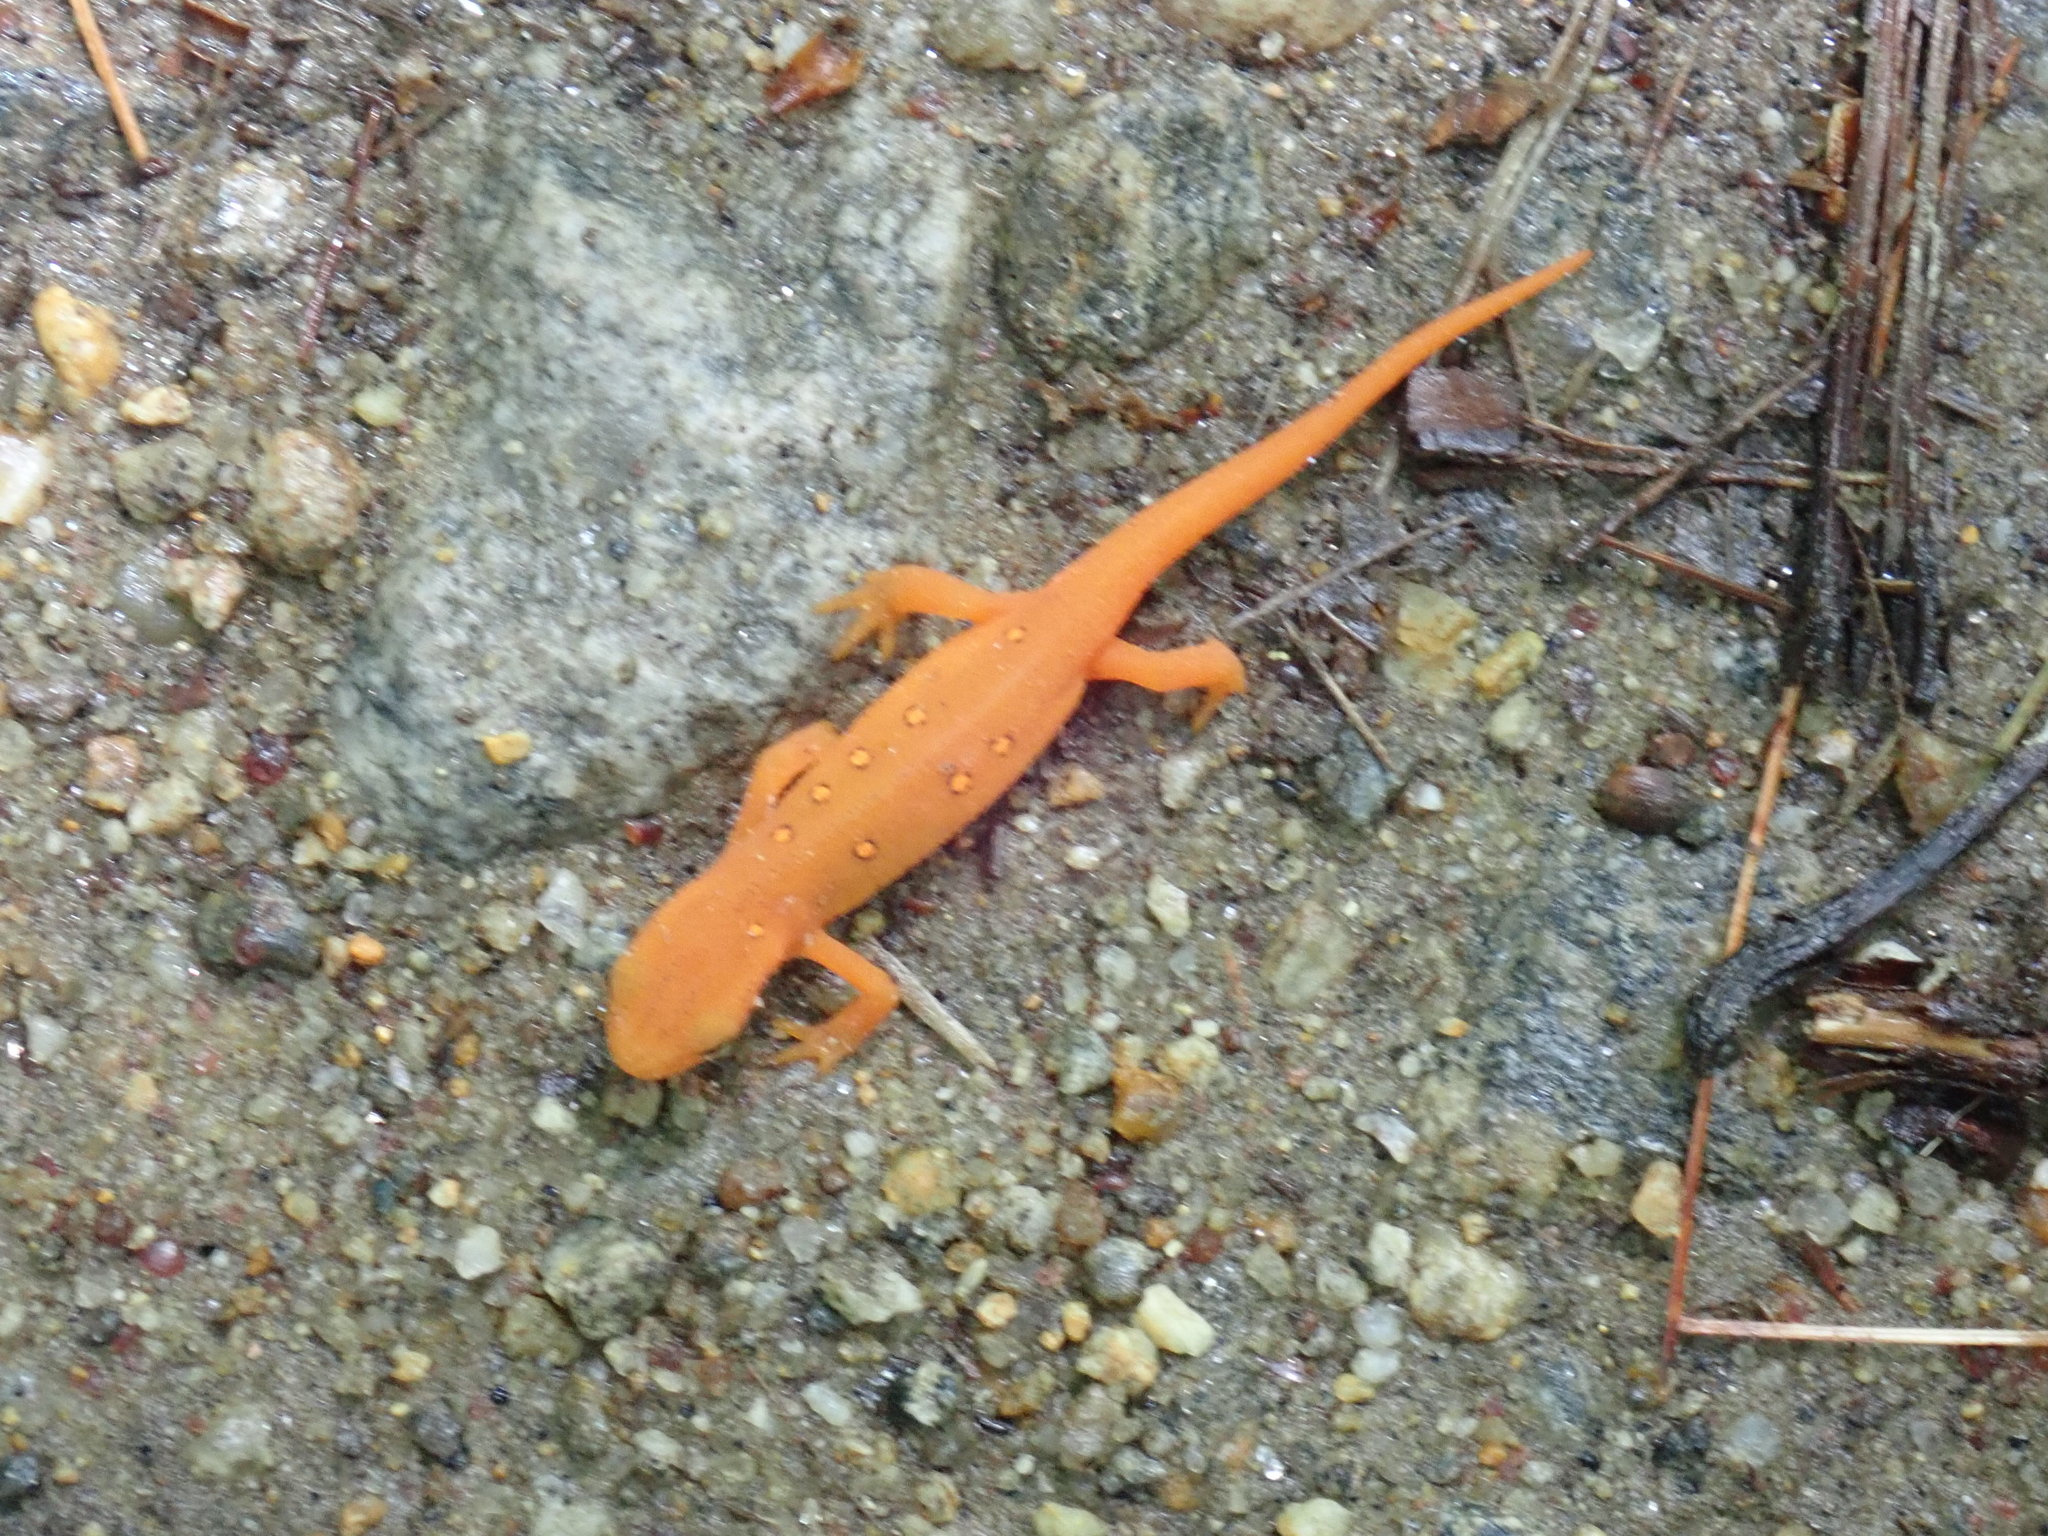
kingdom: Animalia
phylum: Chordata
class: Amphibia
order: Caudata
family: Salamandridae
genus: Notophthalmus
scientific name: Notophthalmus viridescens
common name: Eastern newt
